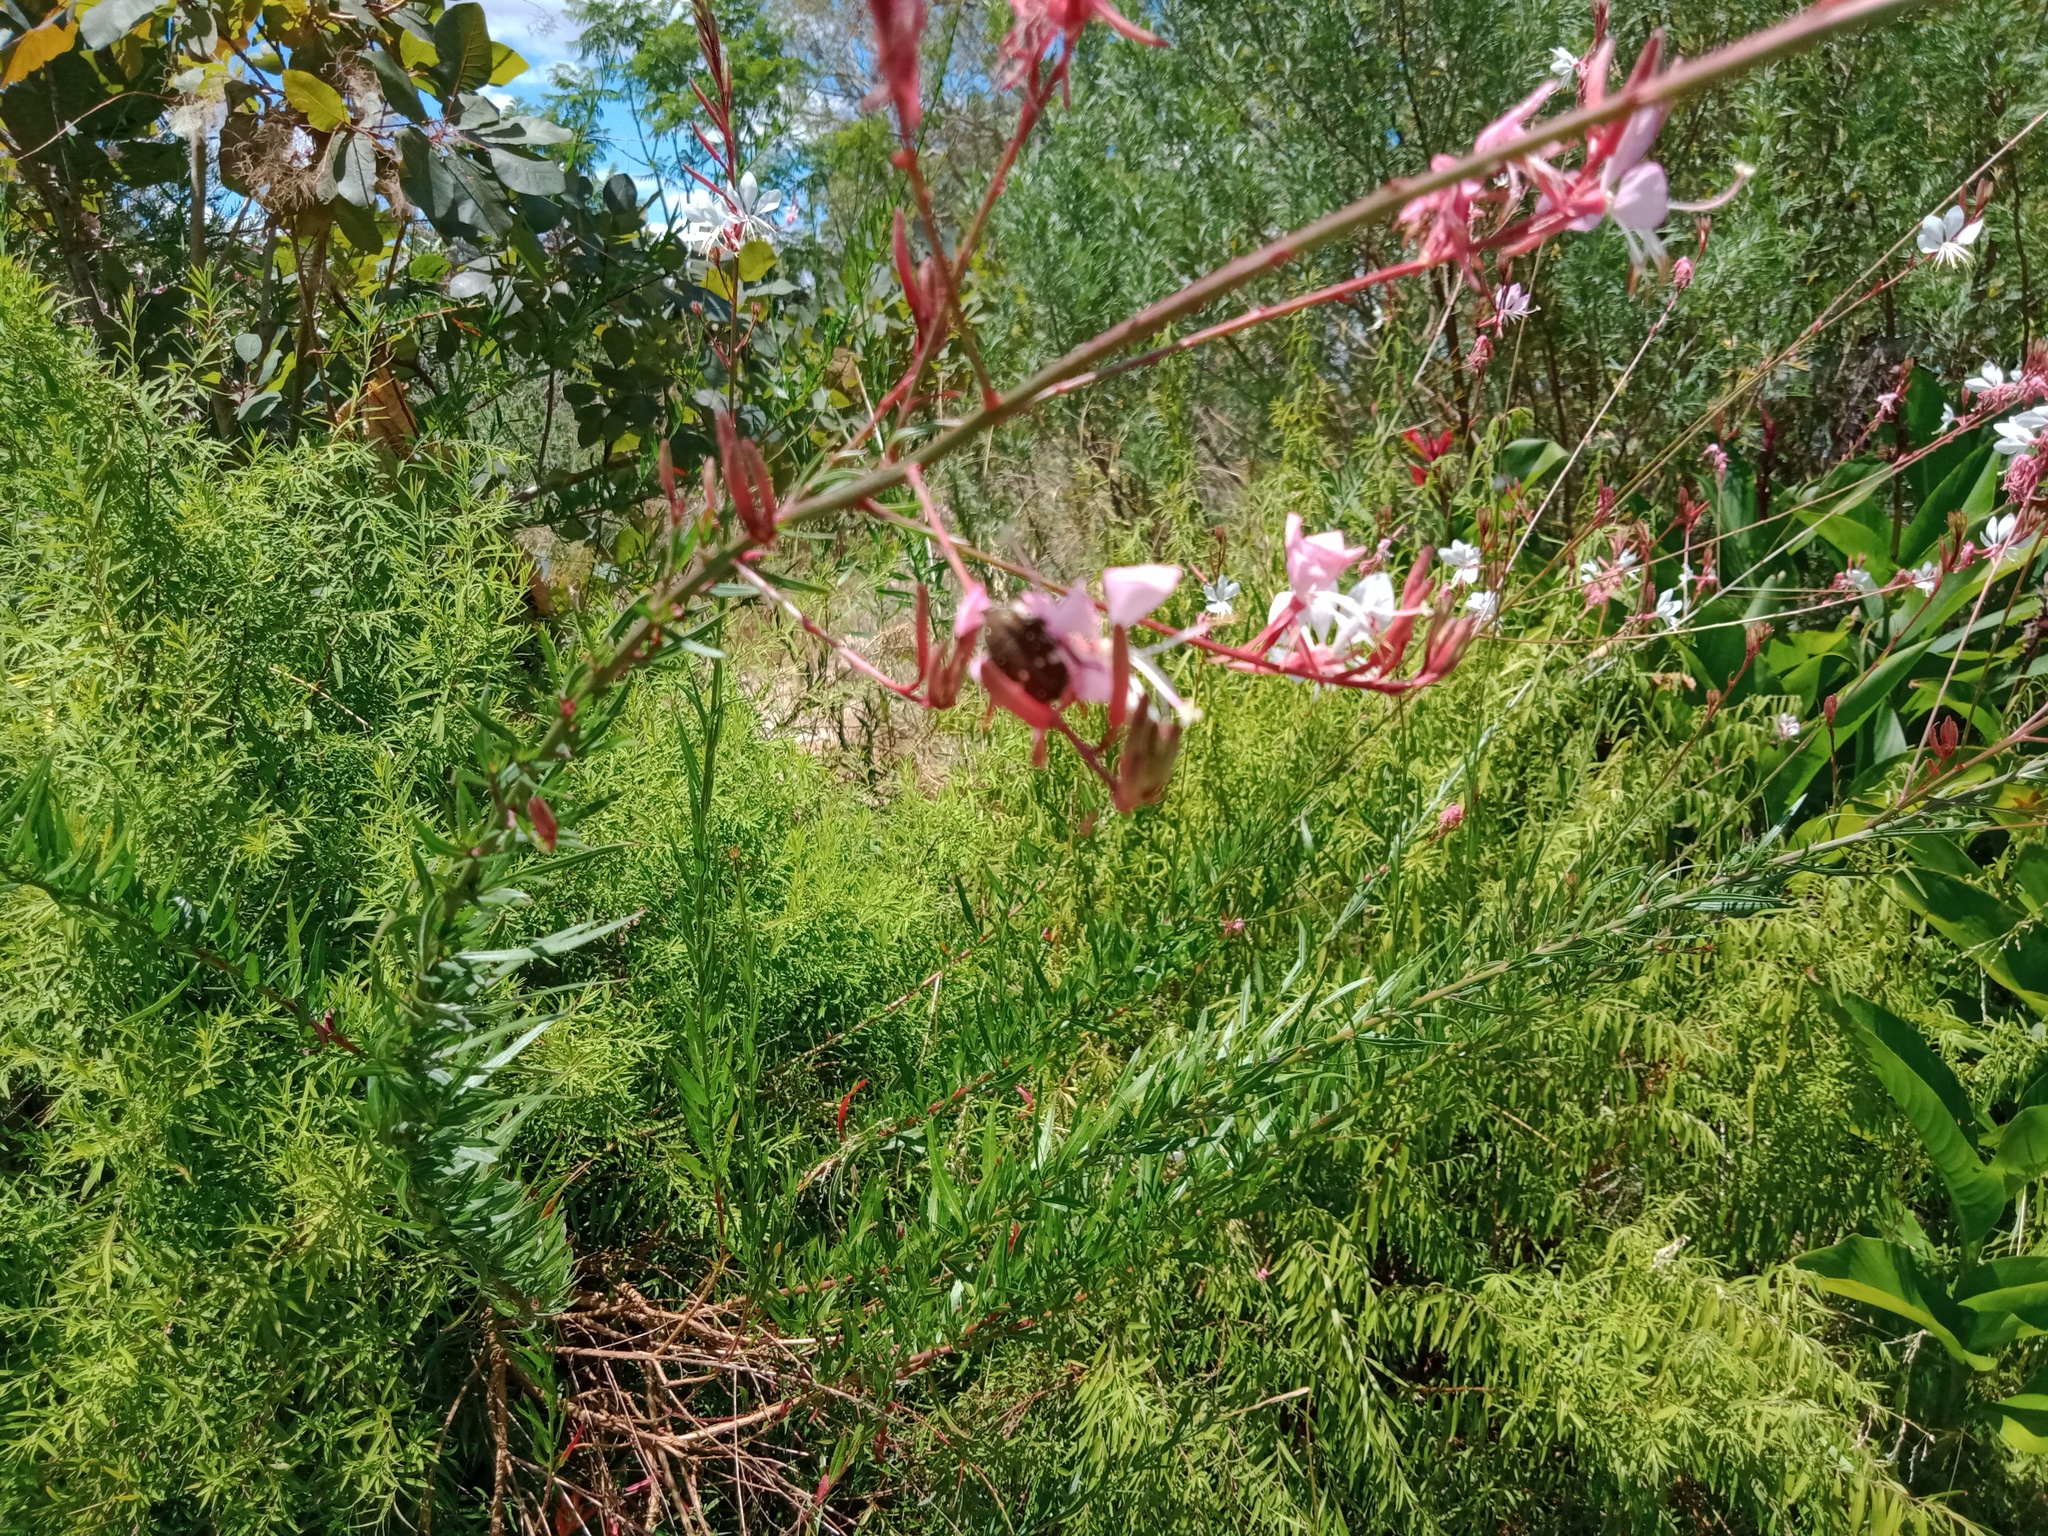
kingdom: Animalia
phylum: Arthropoda
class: Insecta
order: Coleoptera
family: Scarabaeidae
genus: Glycyphana
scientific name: Glycyphana stolata
